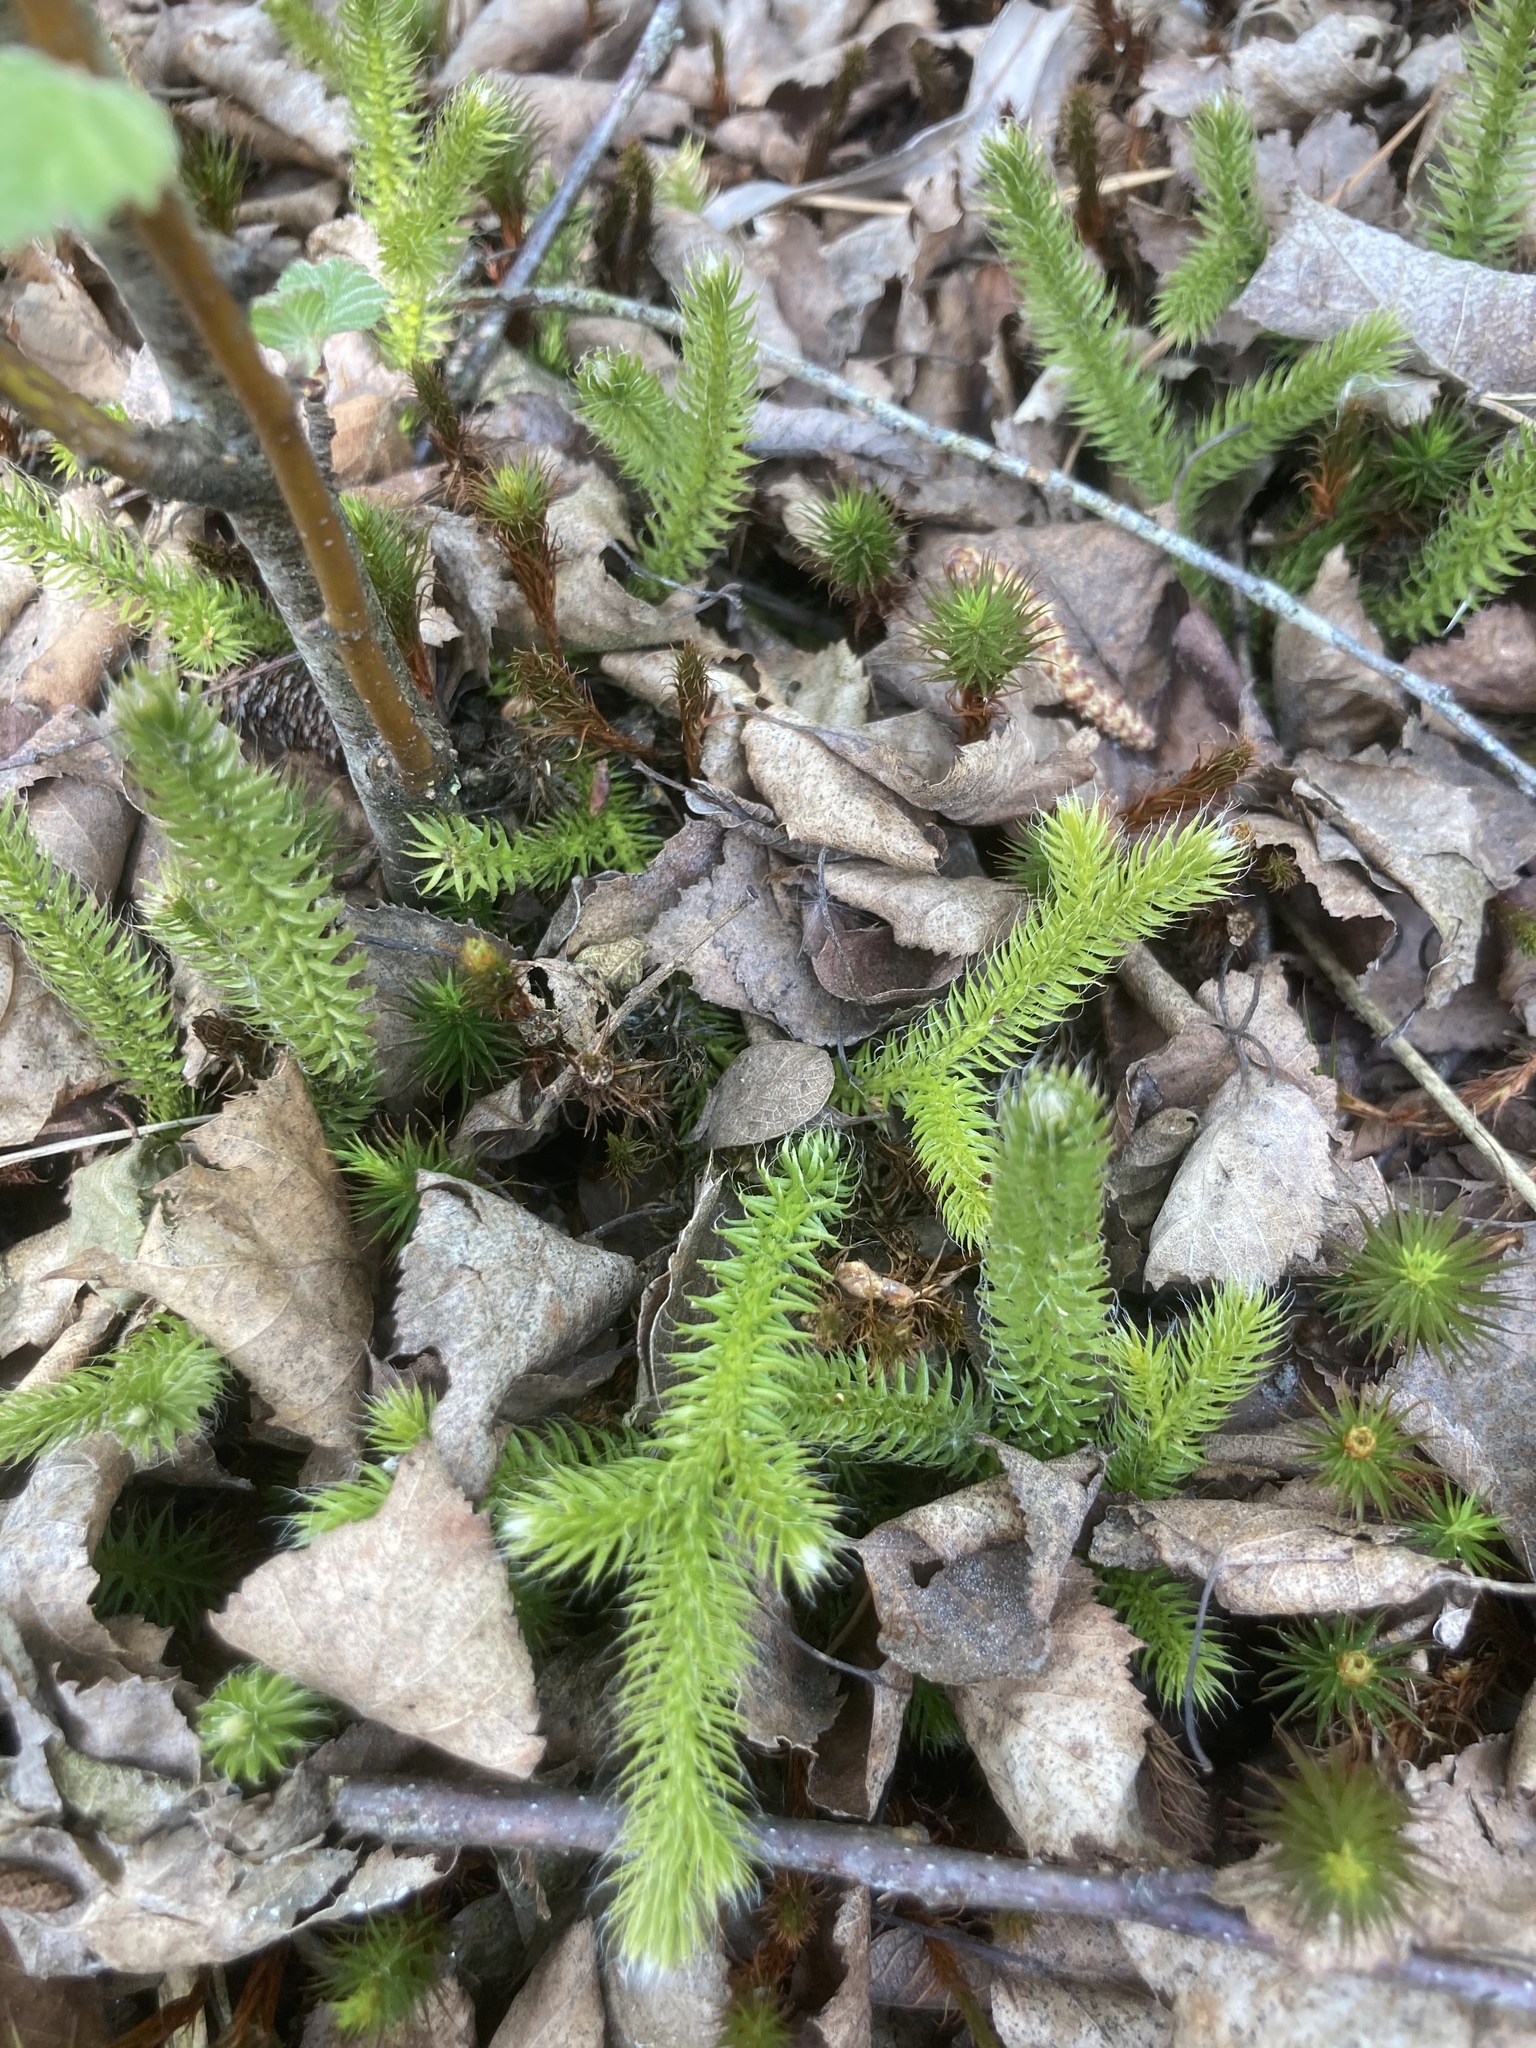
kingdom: Plantae
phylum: Tracheophyta
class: Lycopodiopsida
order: Lycopodiales
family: Lycopodiaceae
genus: Lycopodium
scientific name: Lycopodium clavatum
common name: Stag's-horn clubmoss
